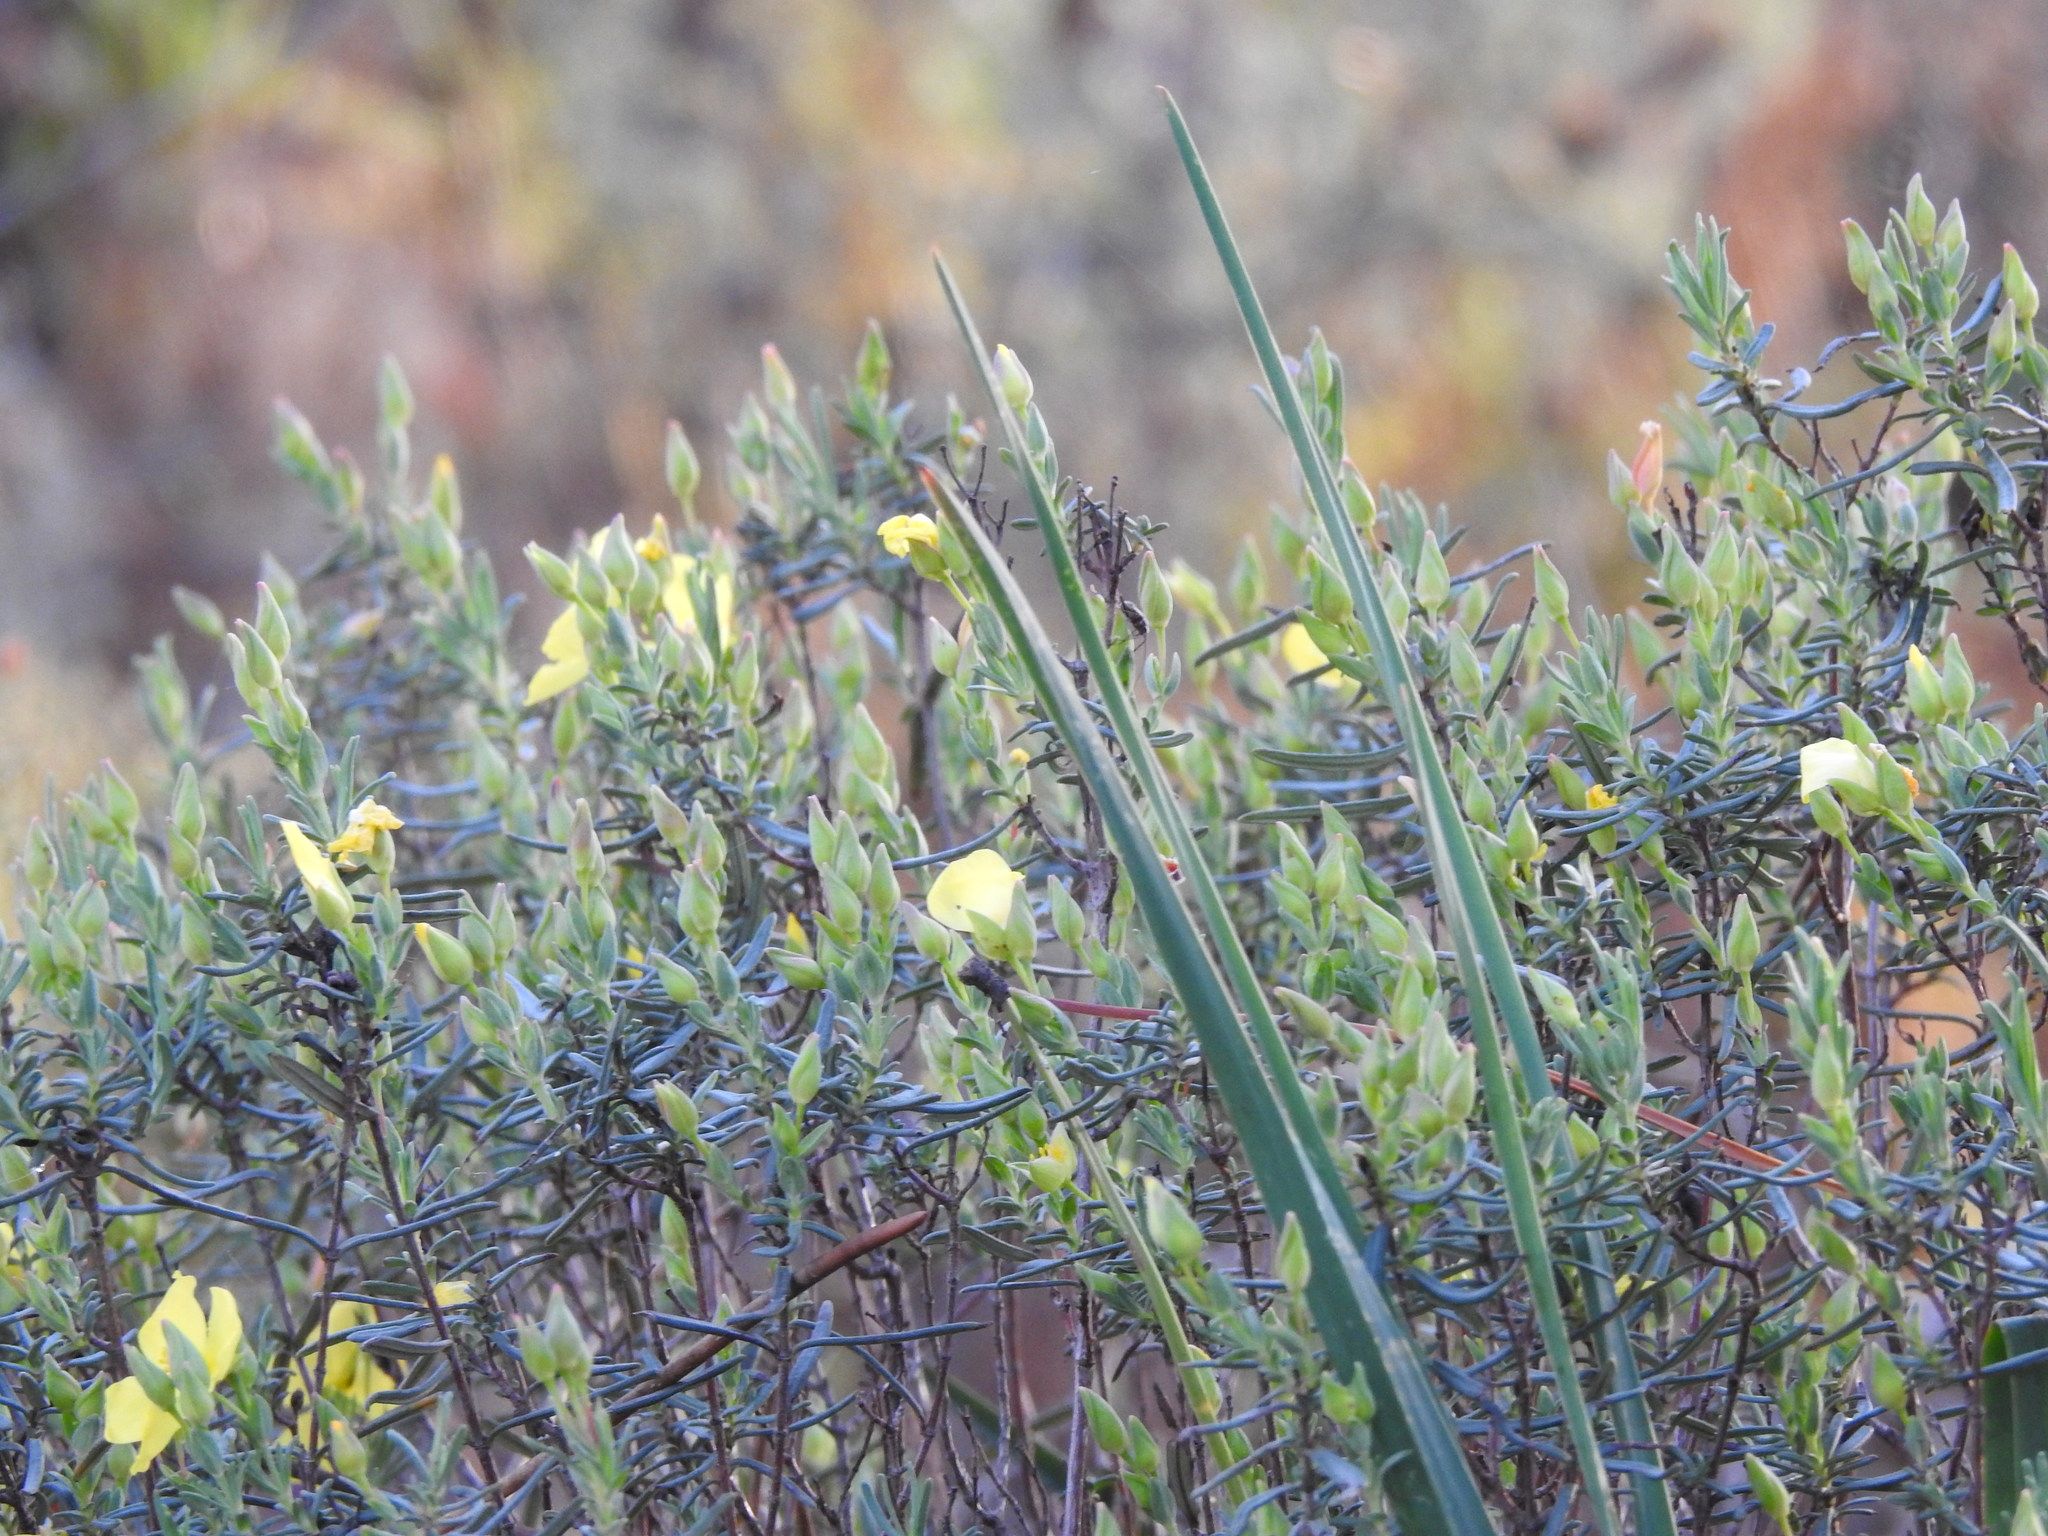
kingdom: Plantae
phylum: Tracheophyta
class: Magnoliopsida
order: Malvales
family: Cistaceae
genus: Halimium
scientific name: Halimium calycinum
